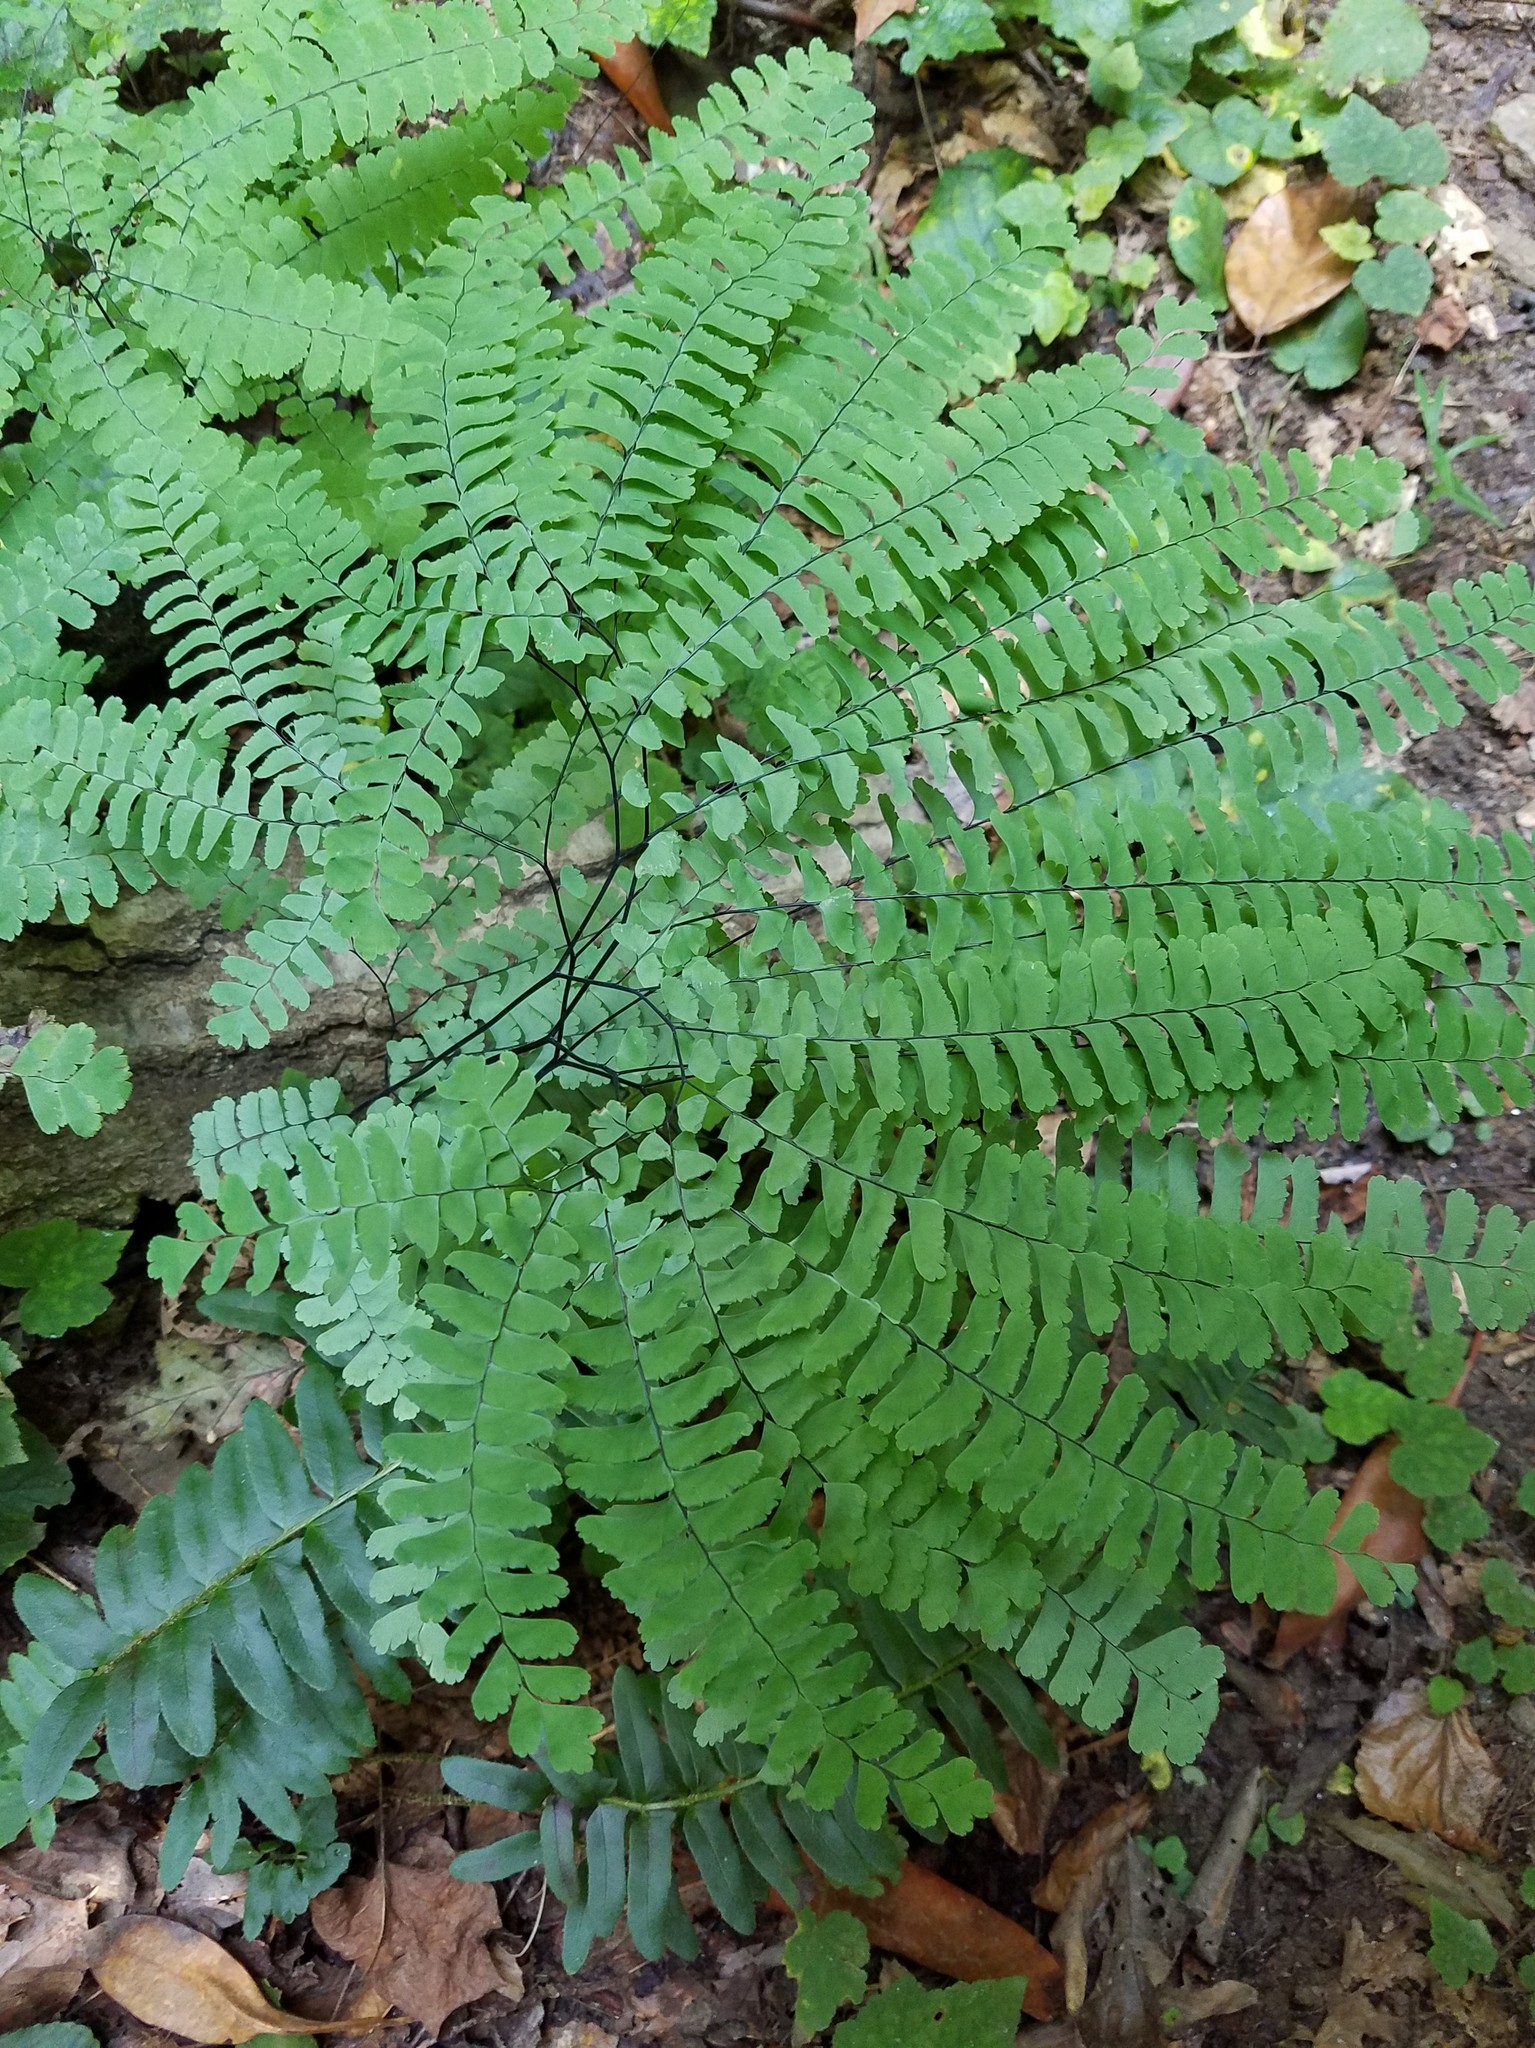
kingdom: Plantae
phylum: Tracheophyta
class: Polypodiopsida
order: Polypodiales
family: Pteridaceae
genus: Adiantum
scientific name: Adiantum pedatum
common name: Five-finger fern
